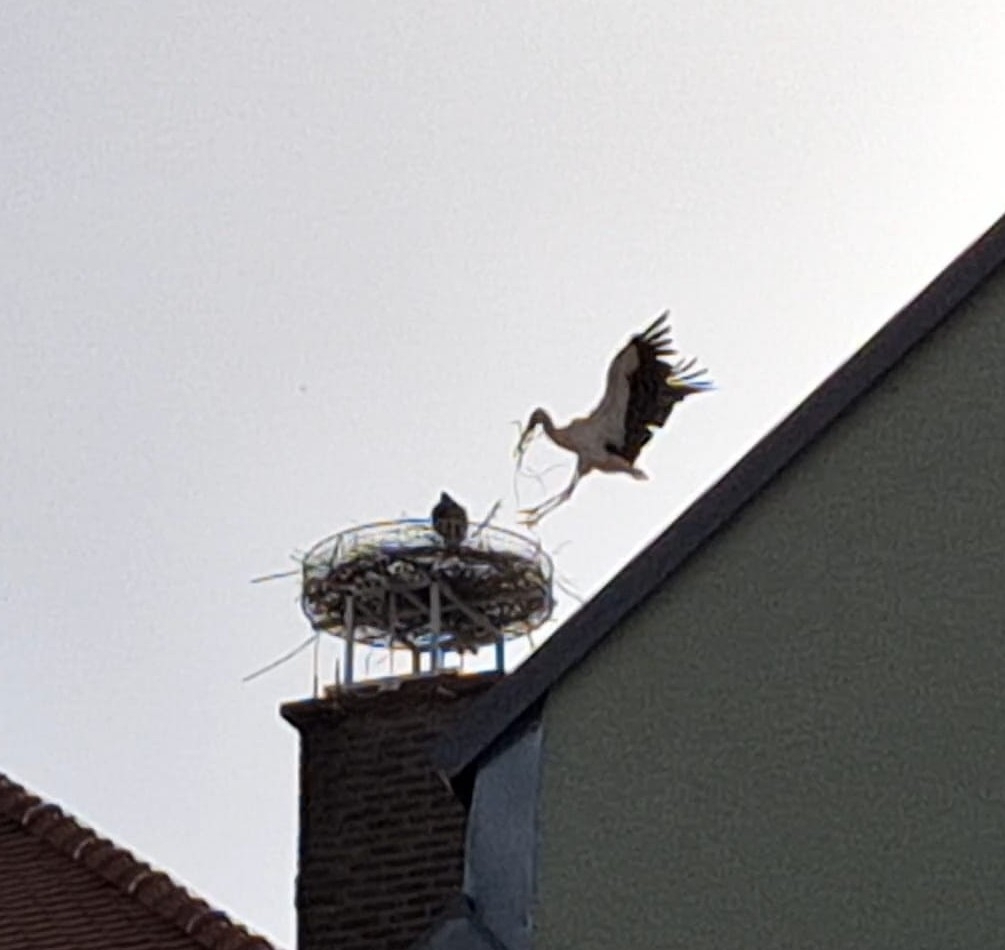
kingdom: Animalia
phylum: Chordata
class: Aves
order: Ciconiiformes
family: Ciconiidae
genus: Ciconia
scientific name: Ciconia ciconia
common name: White stork
